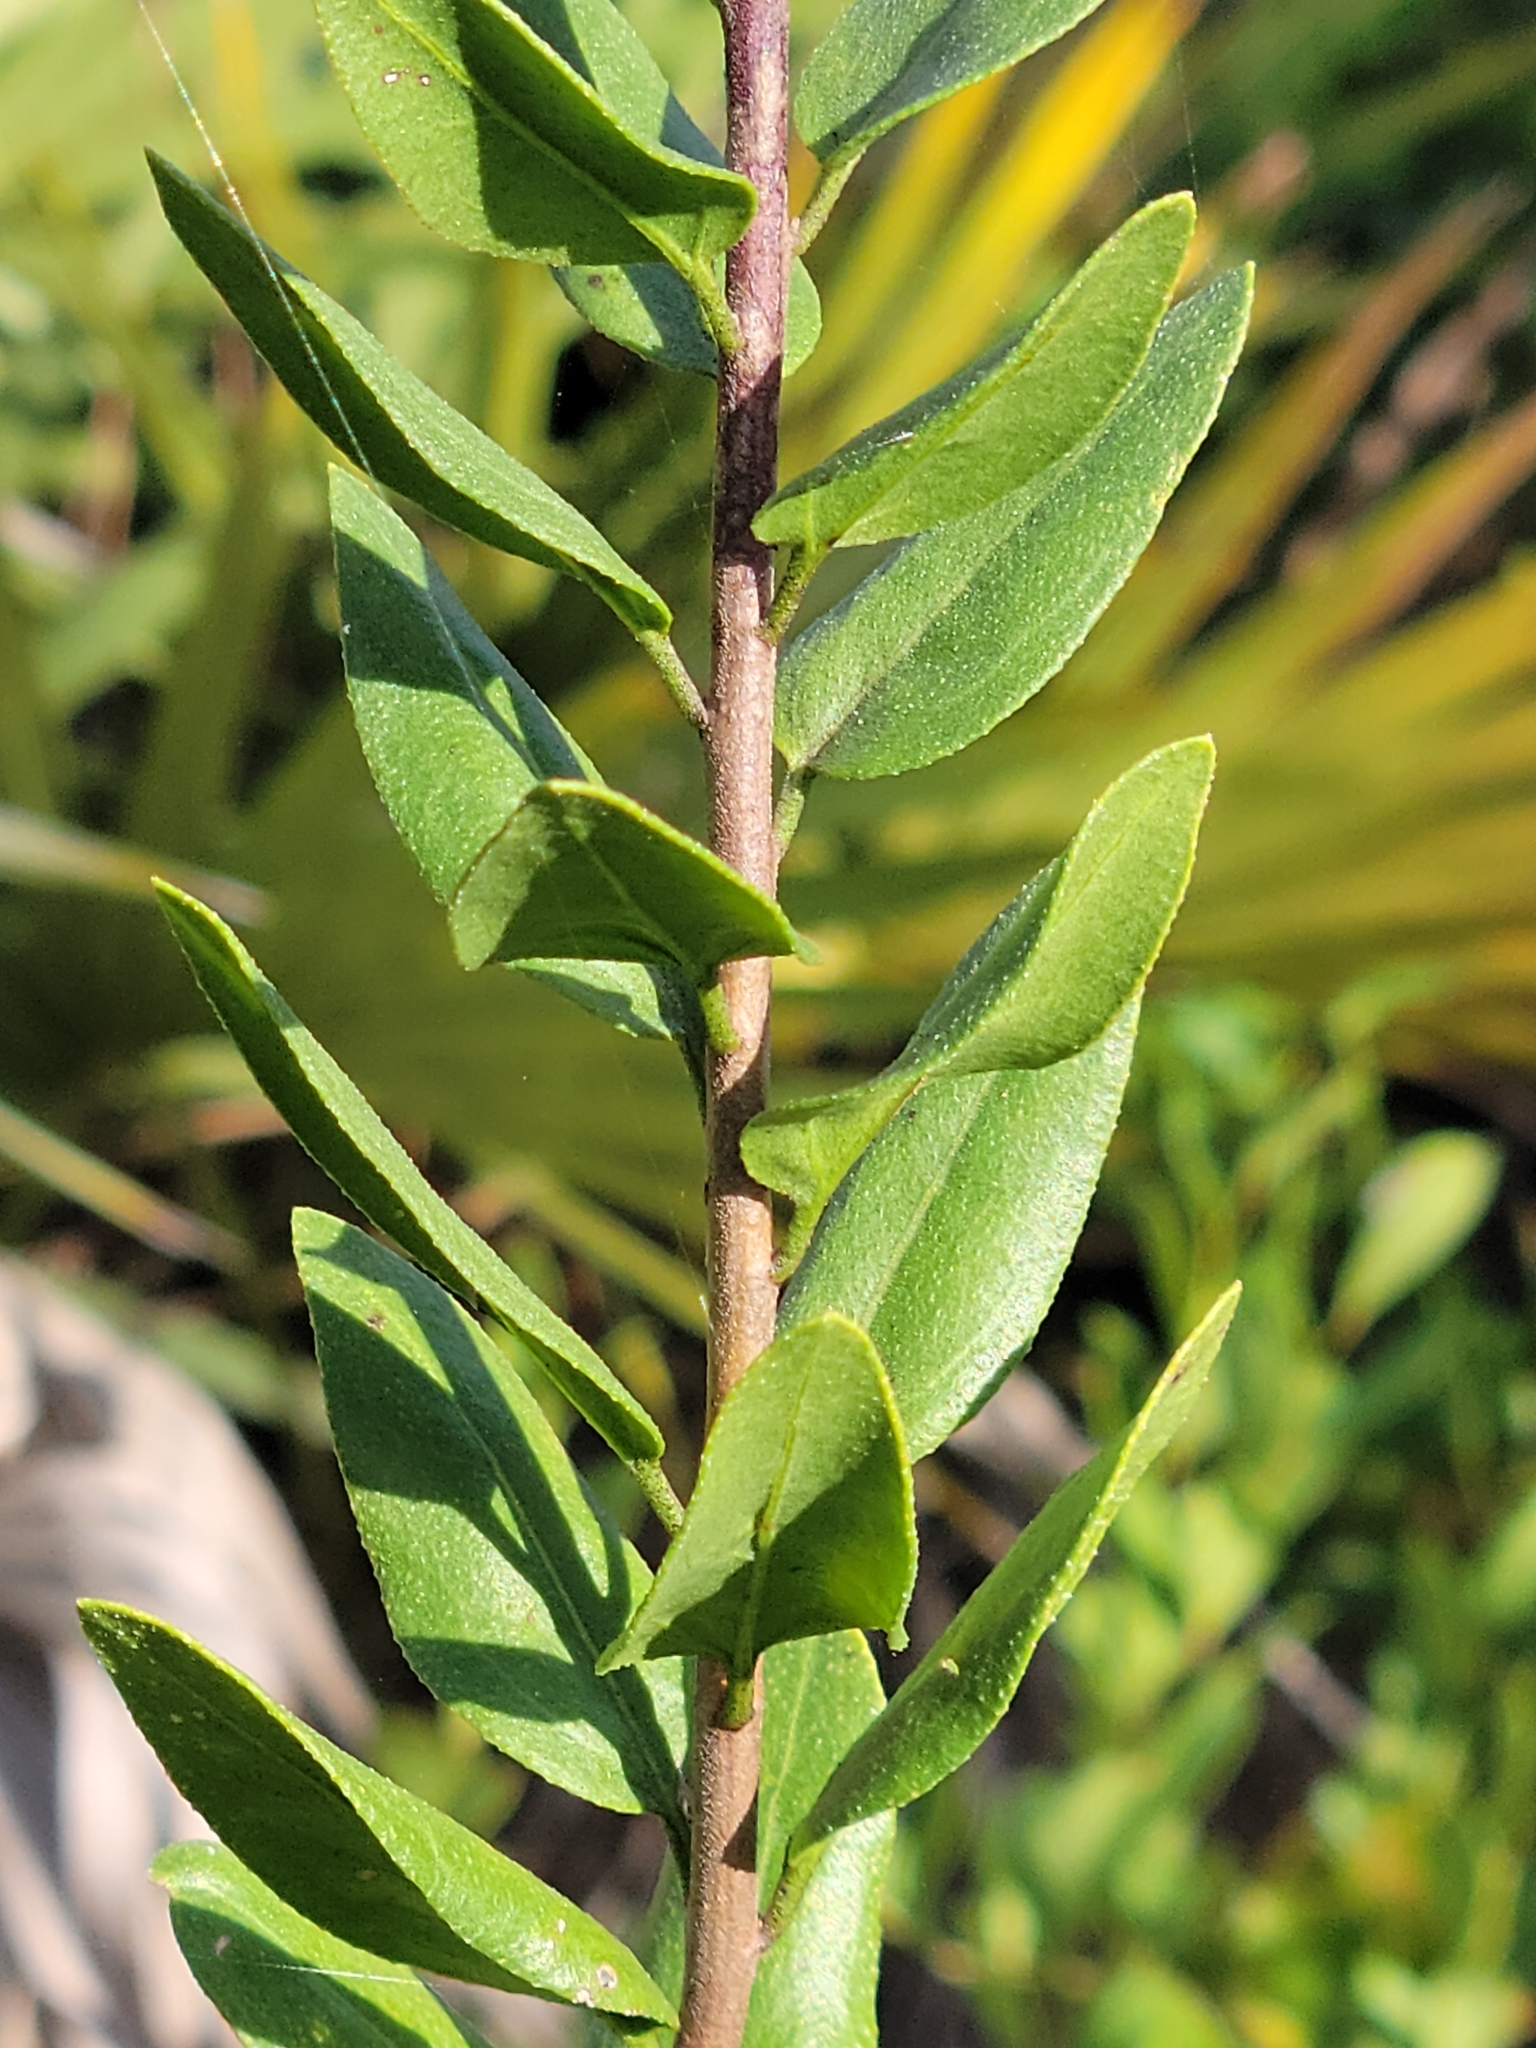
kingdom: Plantae
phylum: Tracheophyta
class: Magnoliopsida
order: Asterales
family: Asteraceae
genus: Palafoxia
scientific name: Palafoxia feayi
